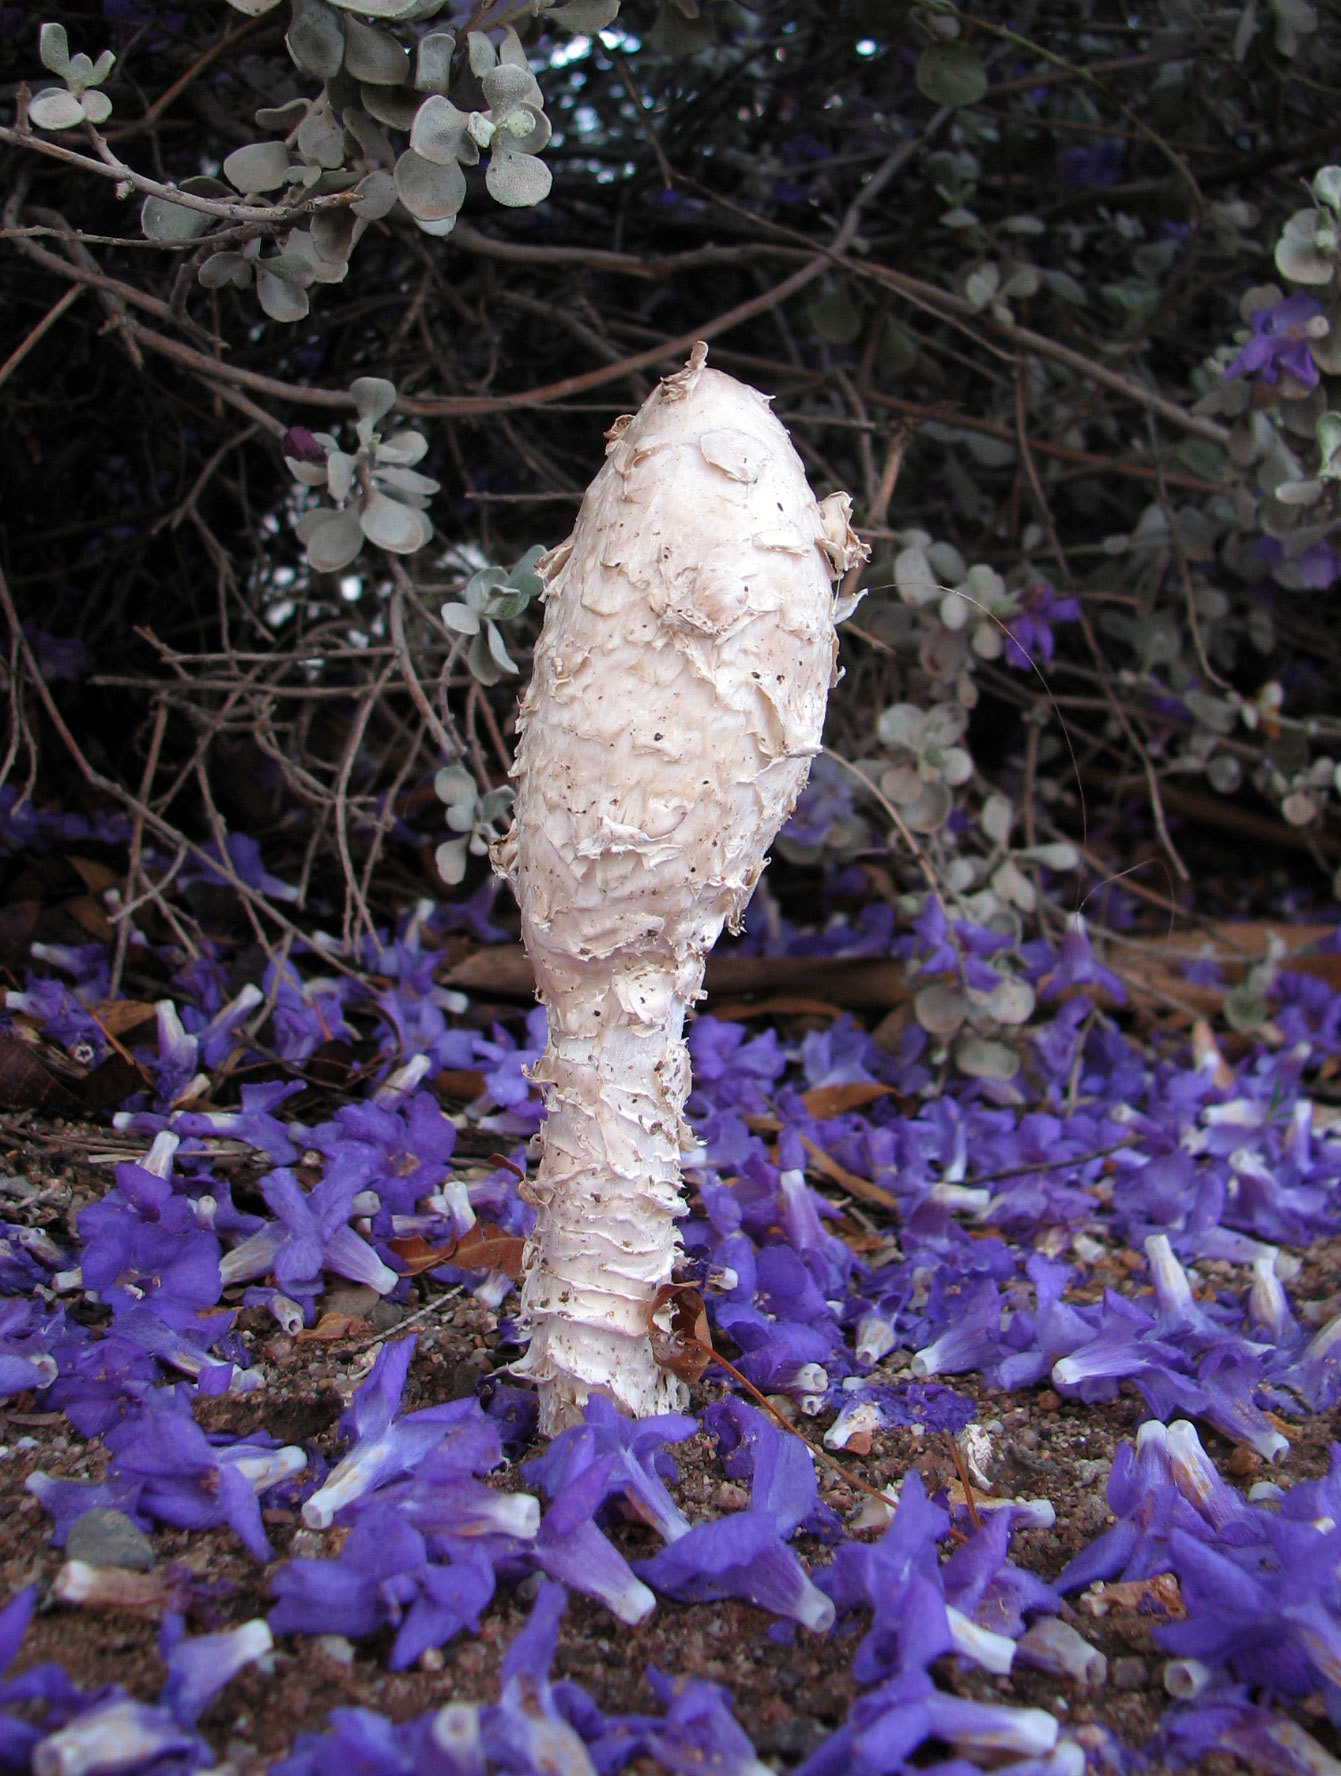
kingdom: Fungi
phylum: Basidiomycota
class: Agaricomycetes
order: Agaricales
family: Agaricaceae
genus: Podaxis
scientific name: Podaxis pistillaris
